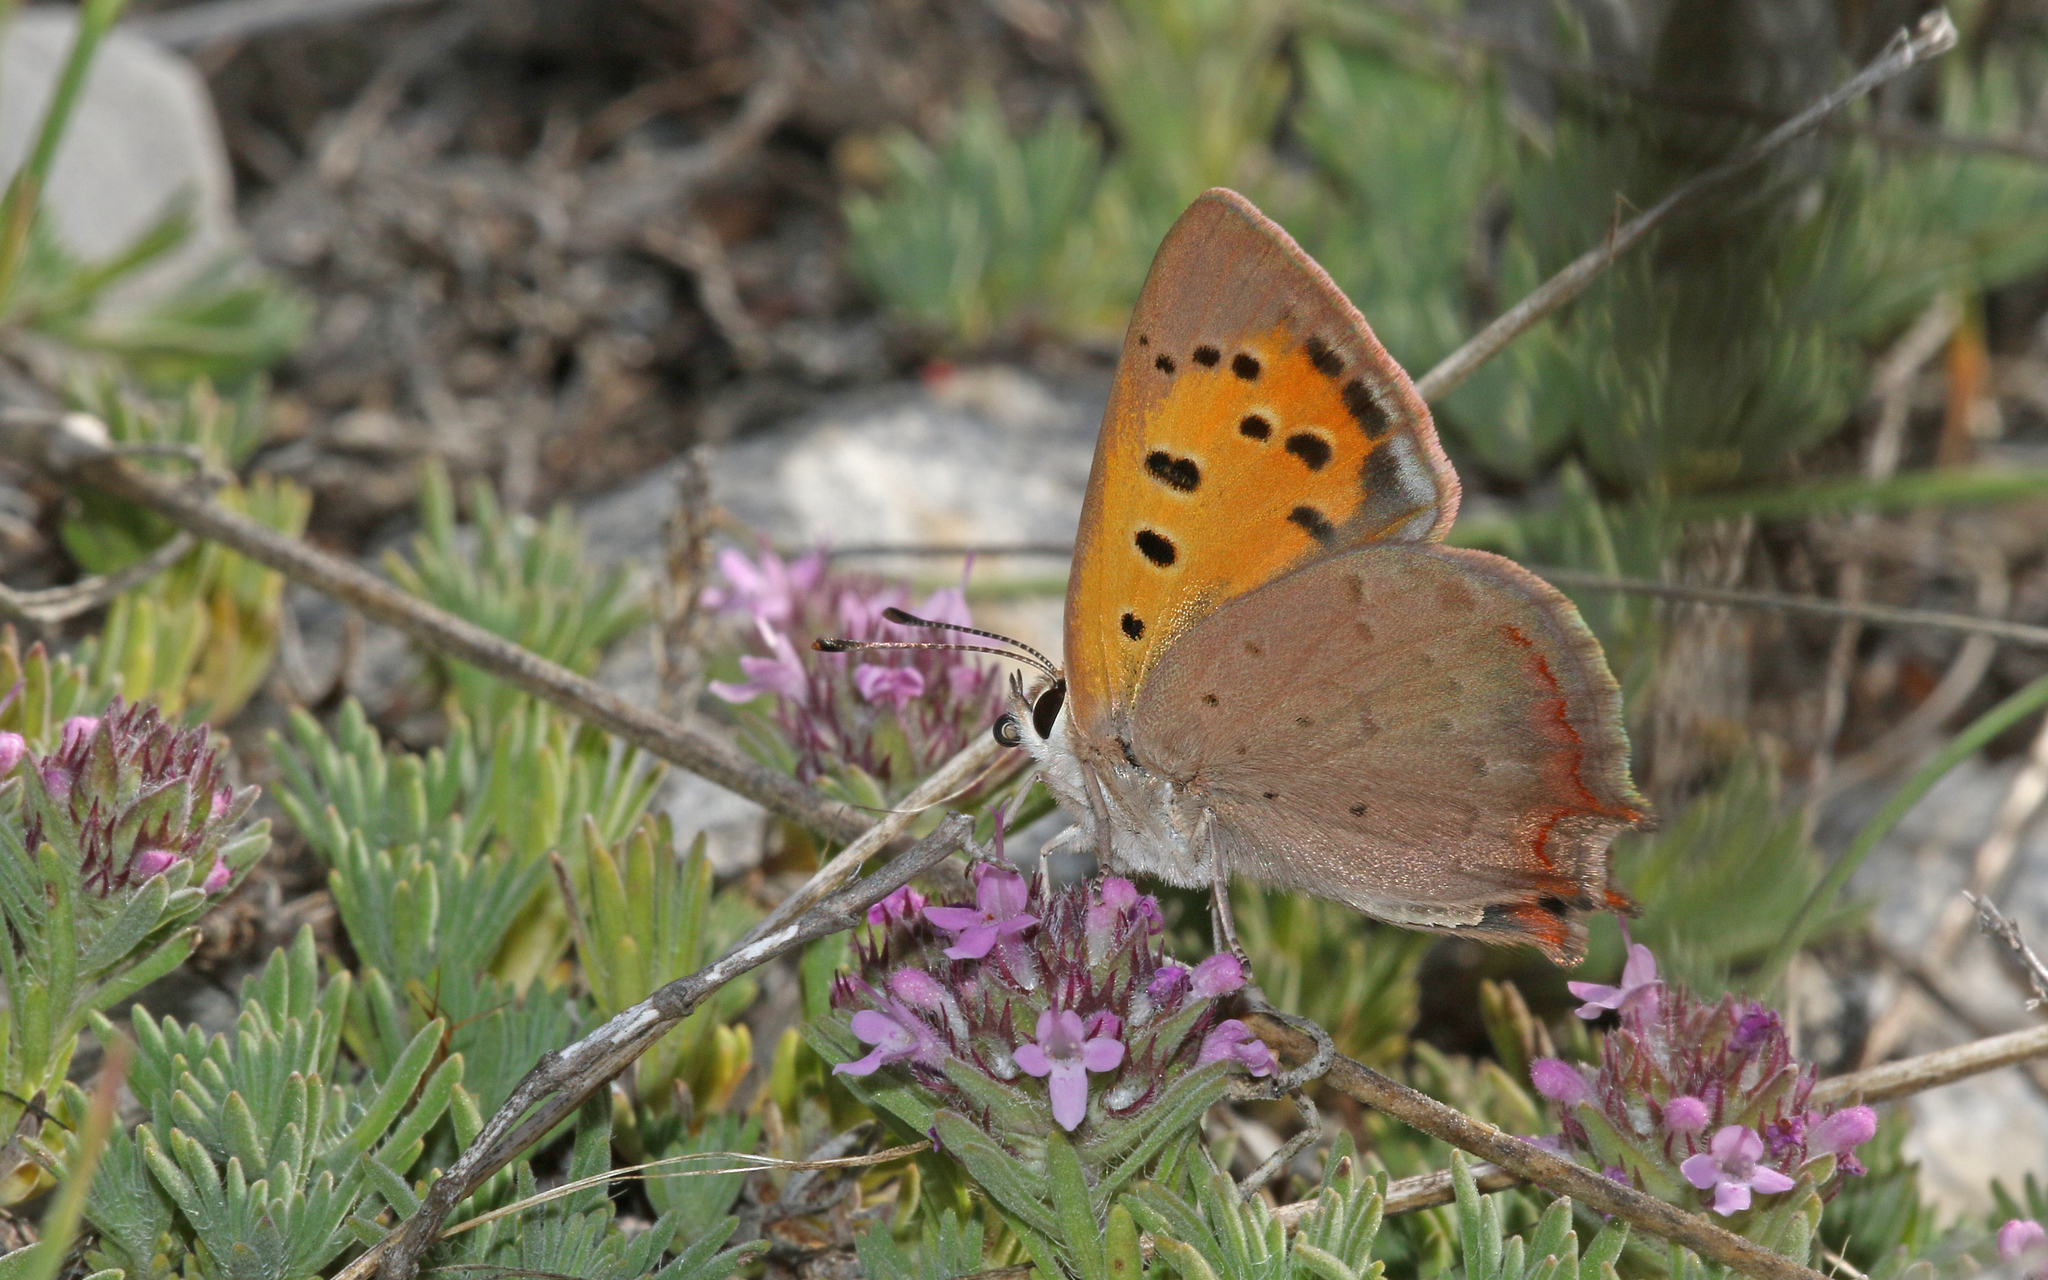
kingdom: Animalia
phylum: Arthropoda
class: Insecta
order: Lepidoptera
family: Lycaenidae
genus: Lycaena
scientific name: Lycaena phlaeas
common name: Small copper
